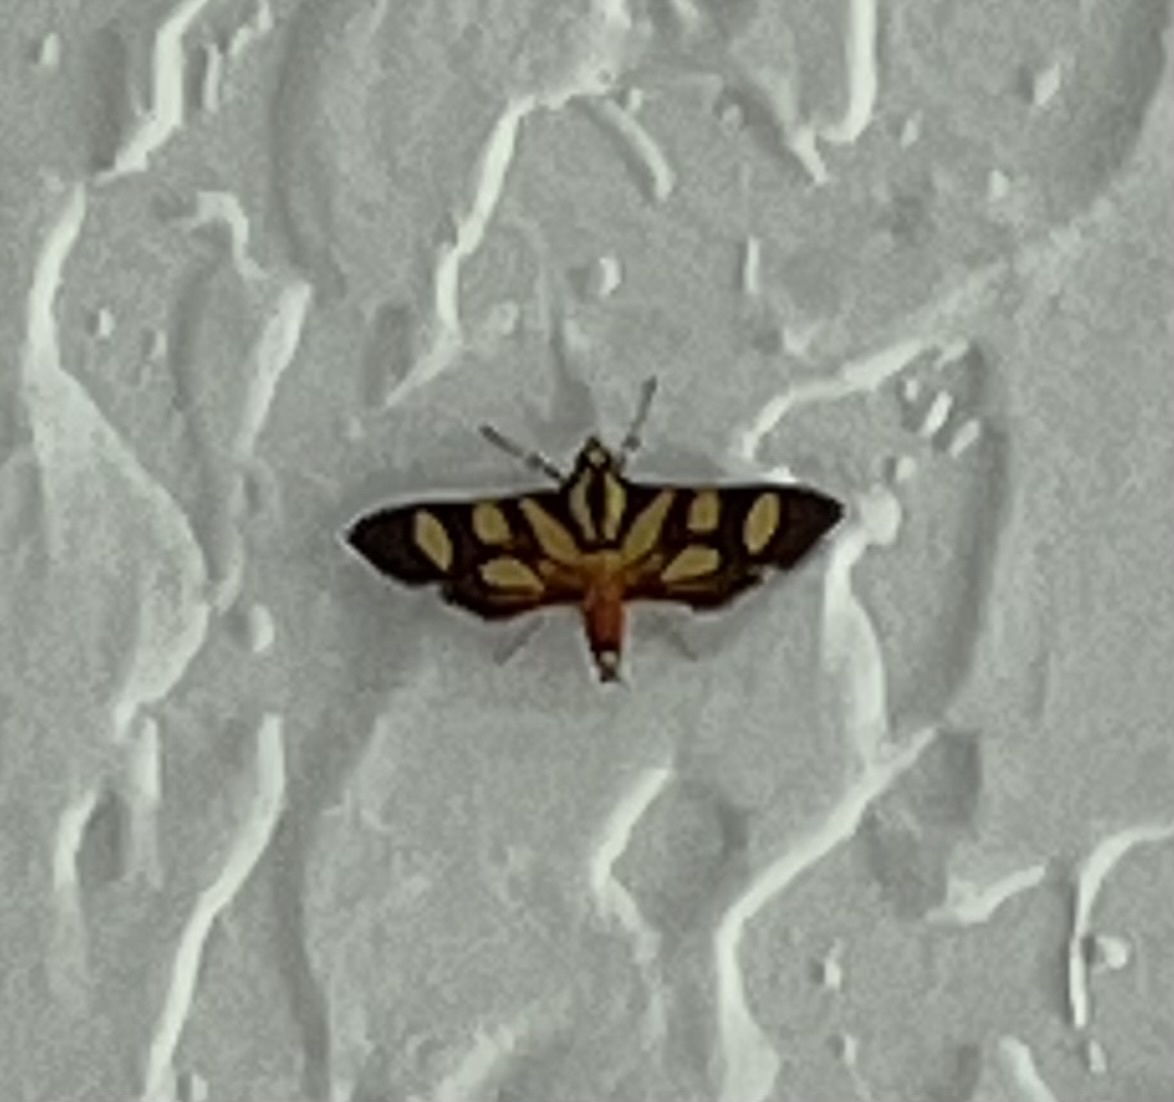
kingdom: Animalia
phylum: Arthropoda
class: Insecta
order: Lepidoptera
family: Crambidae
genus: Syngamia
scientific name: Syngamia florella
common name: Orange-spotted flower moth
